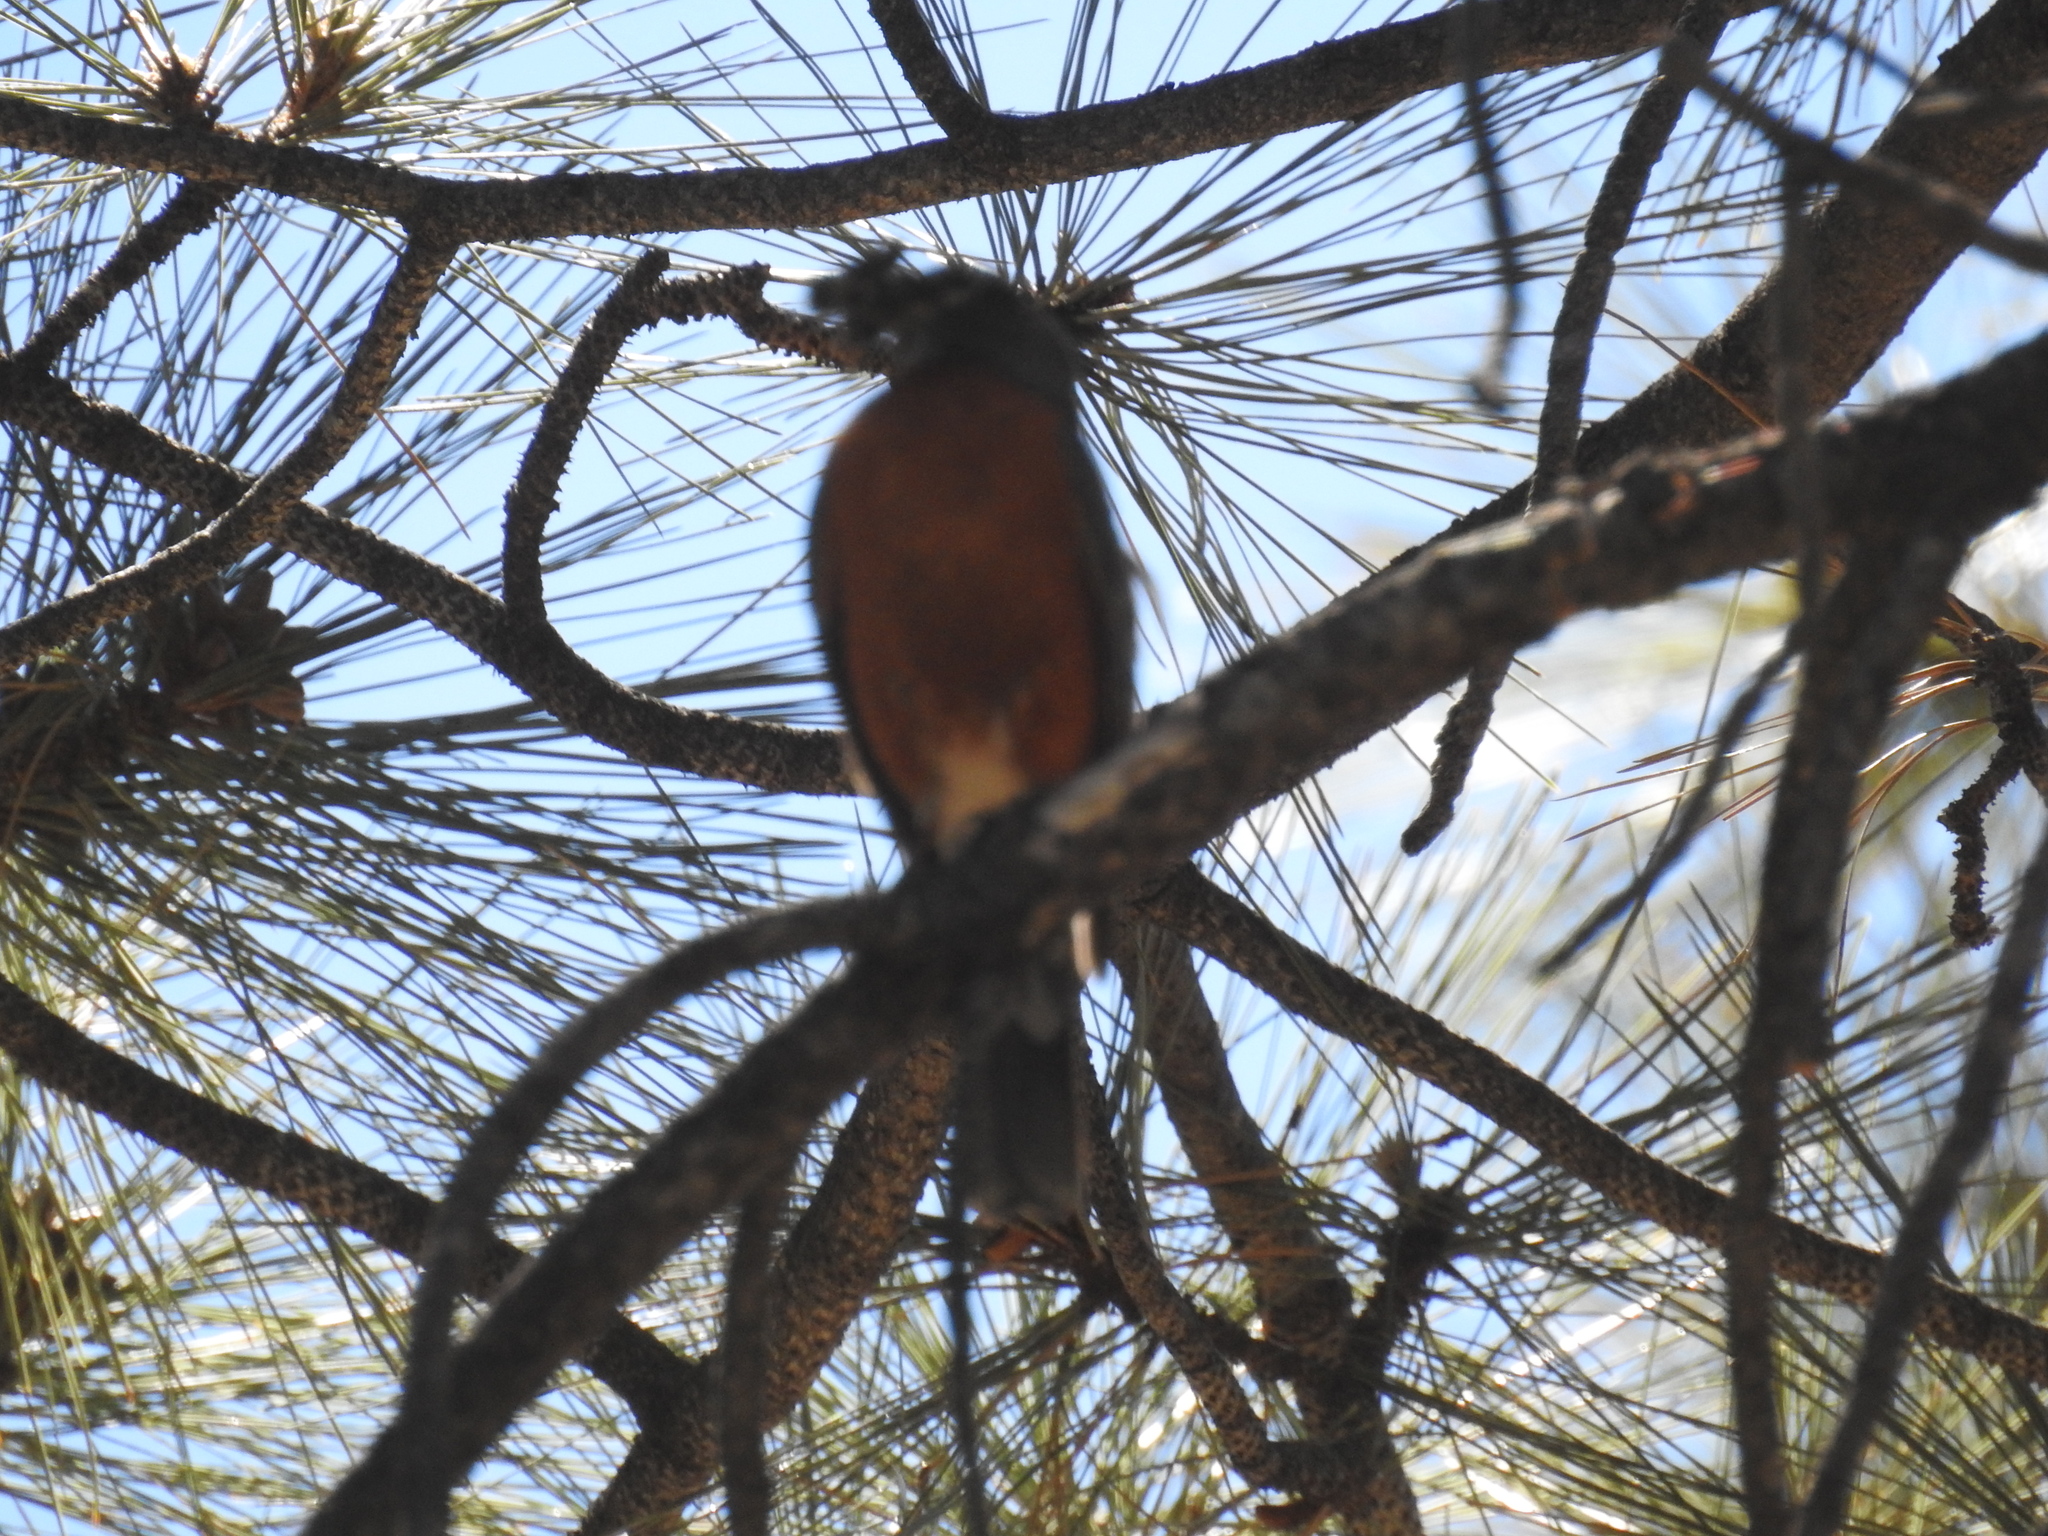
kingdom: Animalia
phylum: Chordata
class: Aves
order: Passeriformes
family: Turdidae
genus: Turdus
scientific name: Turdus migratorius
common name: American robin
